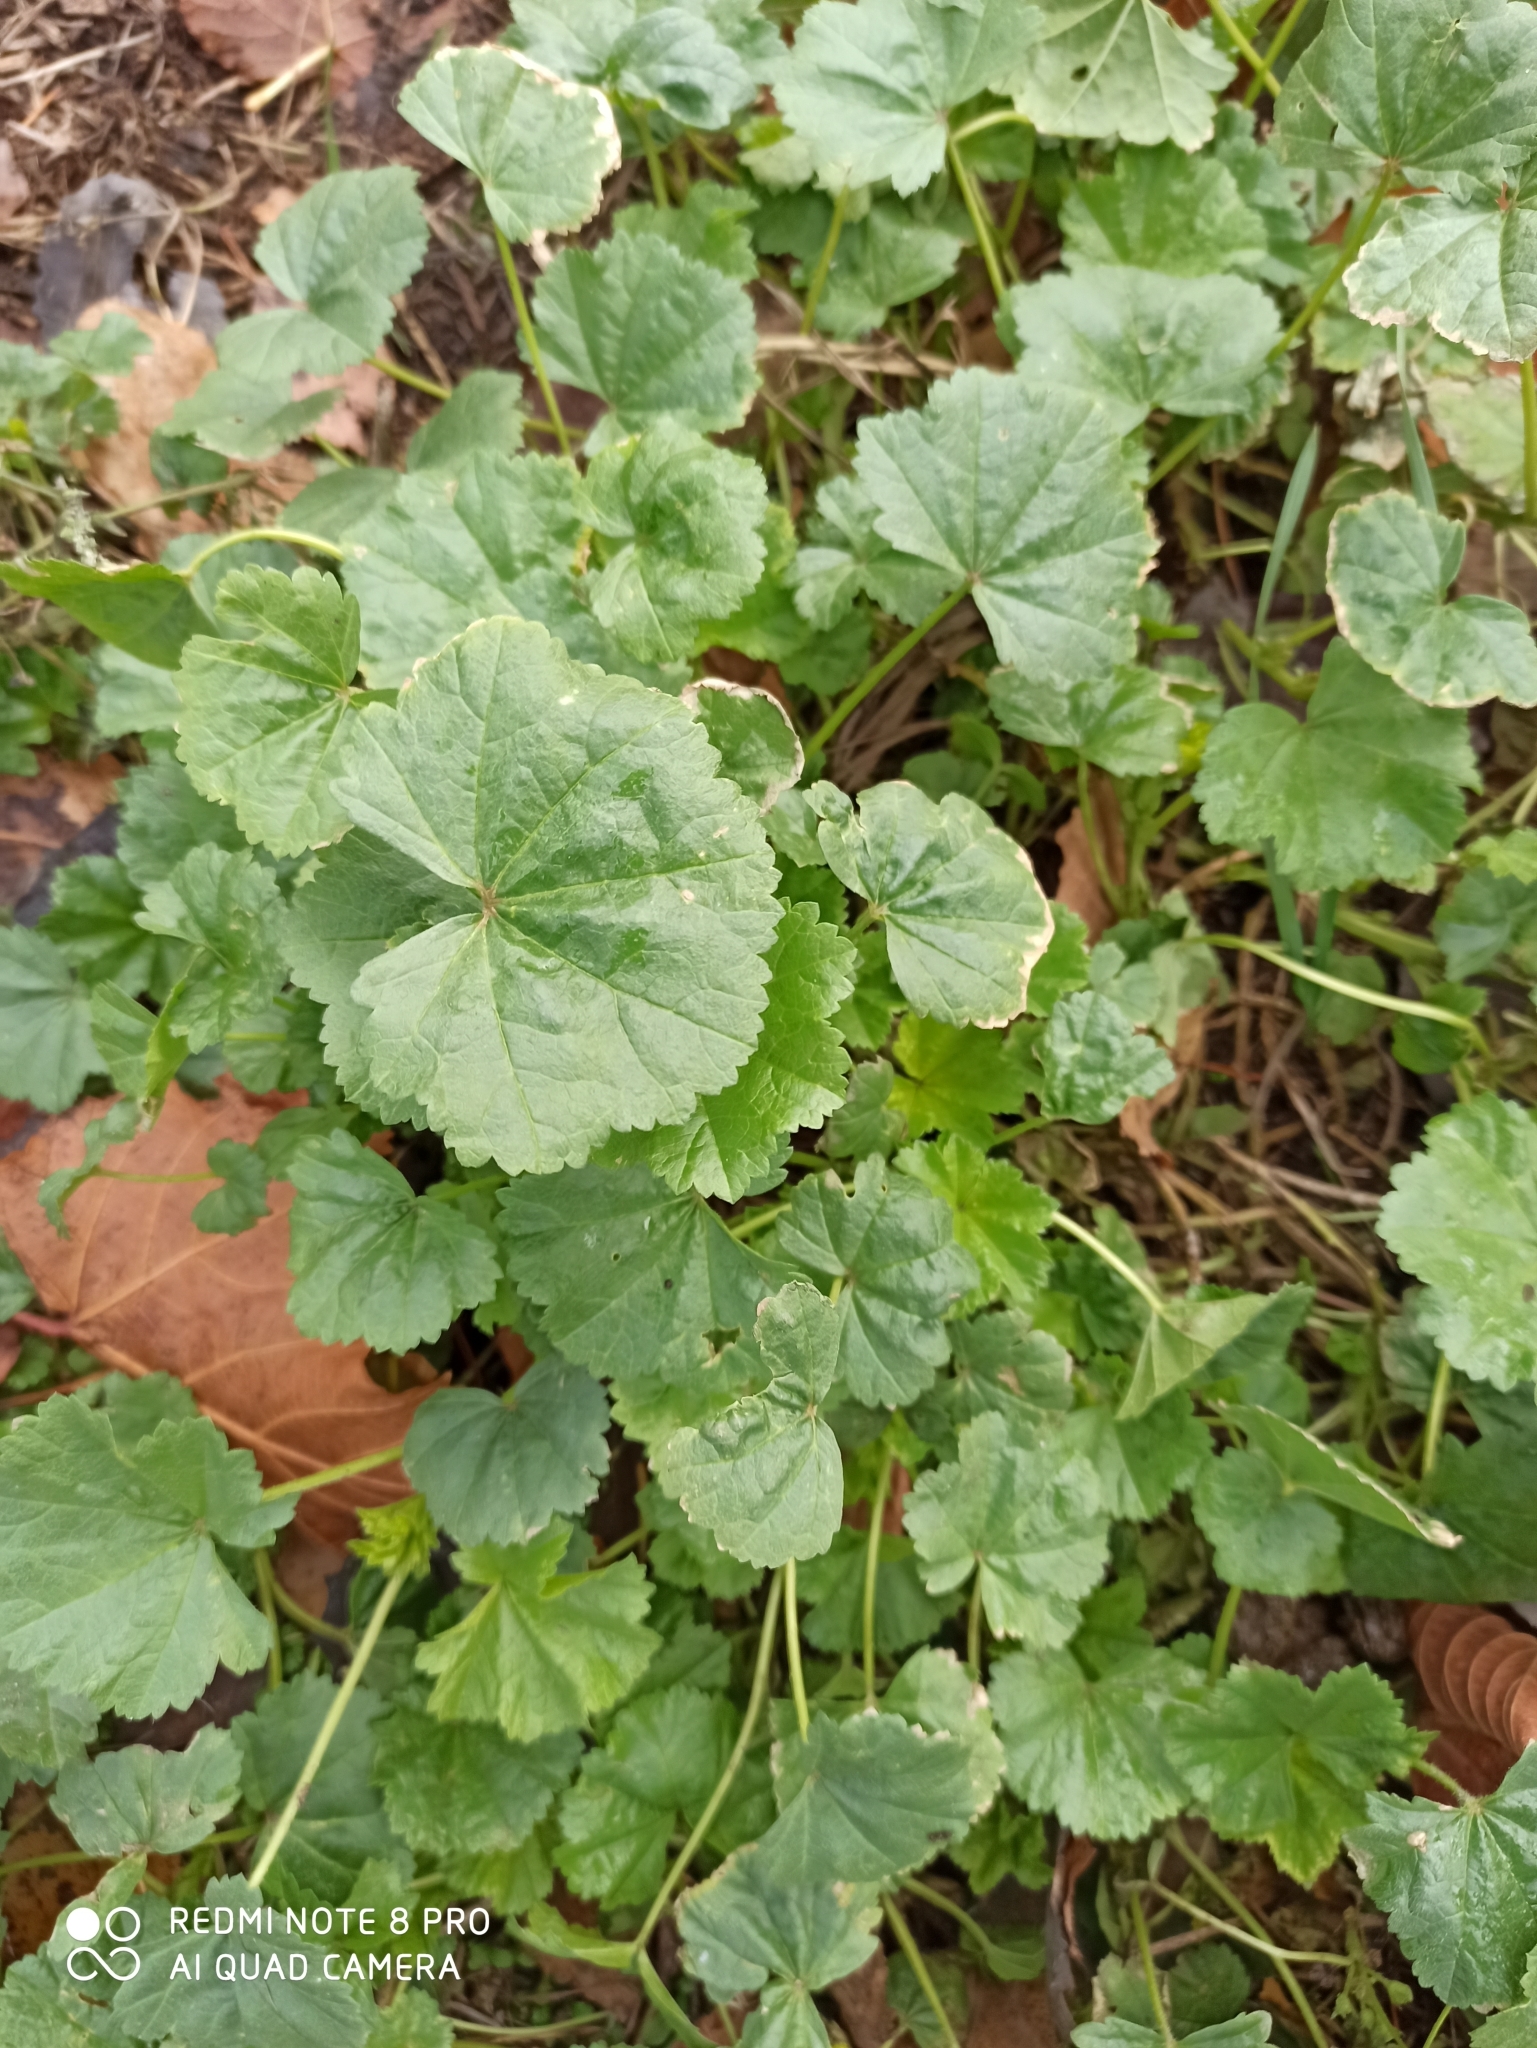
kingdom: Plantae
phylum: Tracheophyta
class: Magnoliopsida
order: Malvales
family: Malvaceae
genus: Malva
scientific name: Malva pusilla
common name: Small mallow
